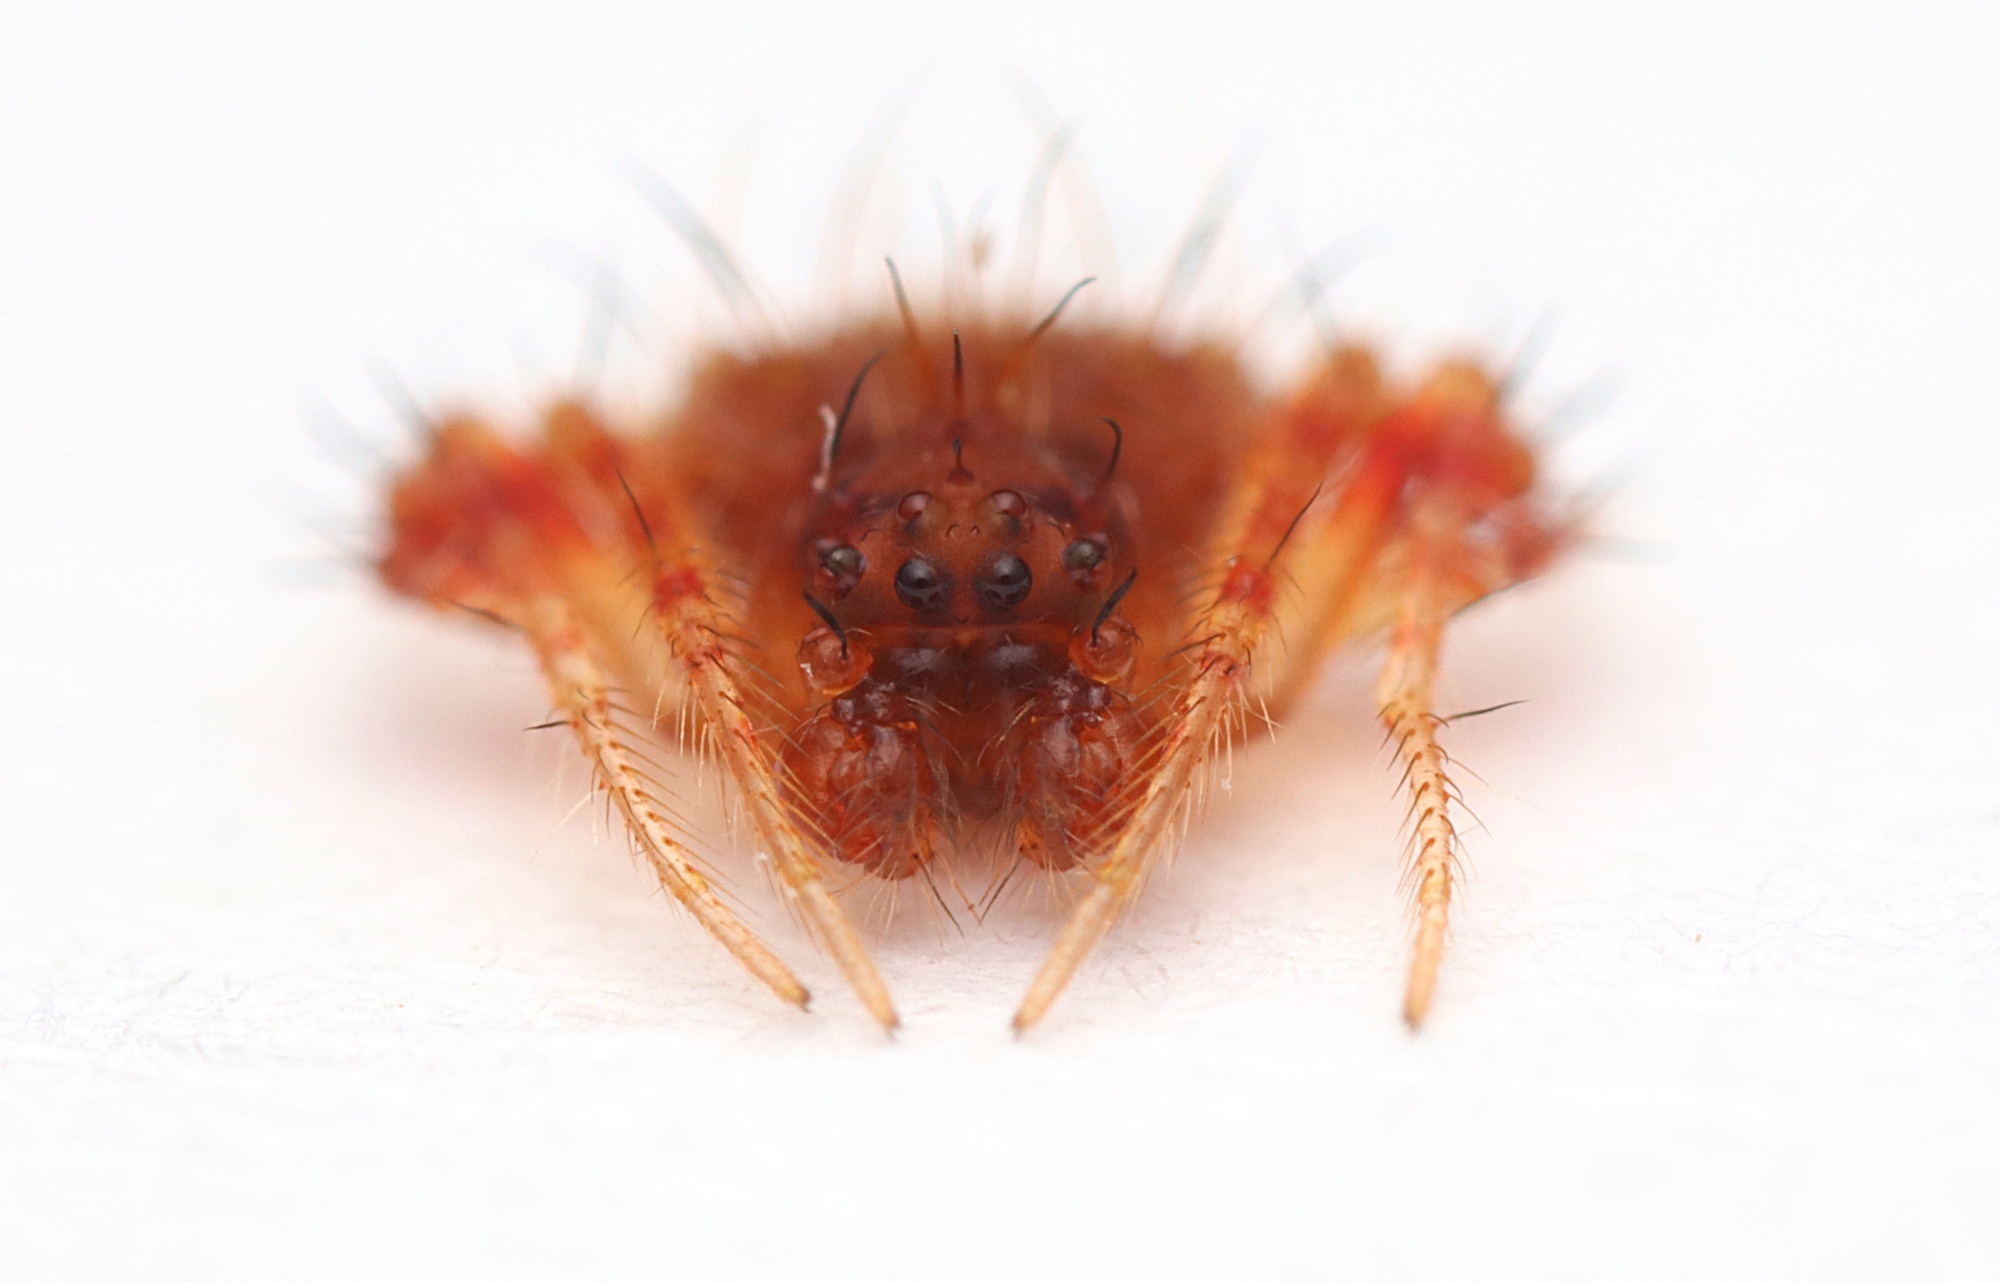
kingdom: Animalia
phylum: Arthropoda
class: Arachnida
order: Araneae
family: Araneidae
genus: Poecilopachys
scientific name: Poecilopachys australasia
